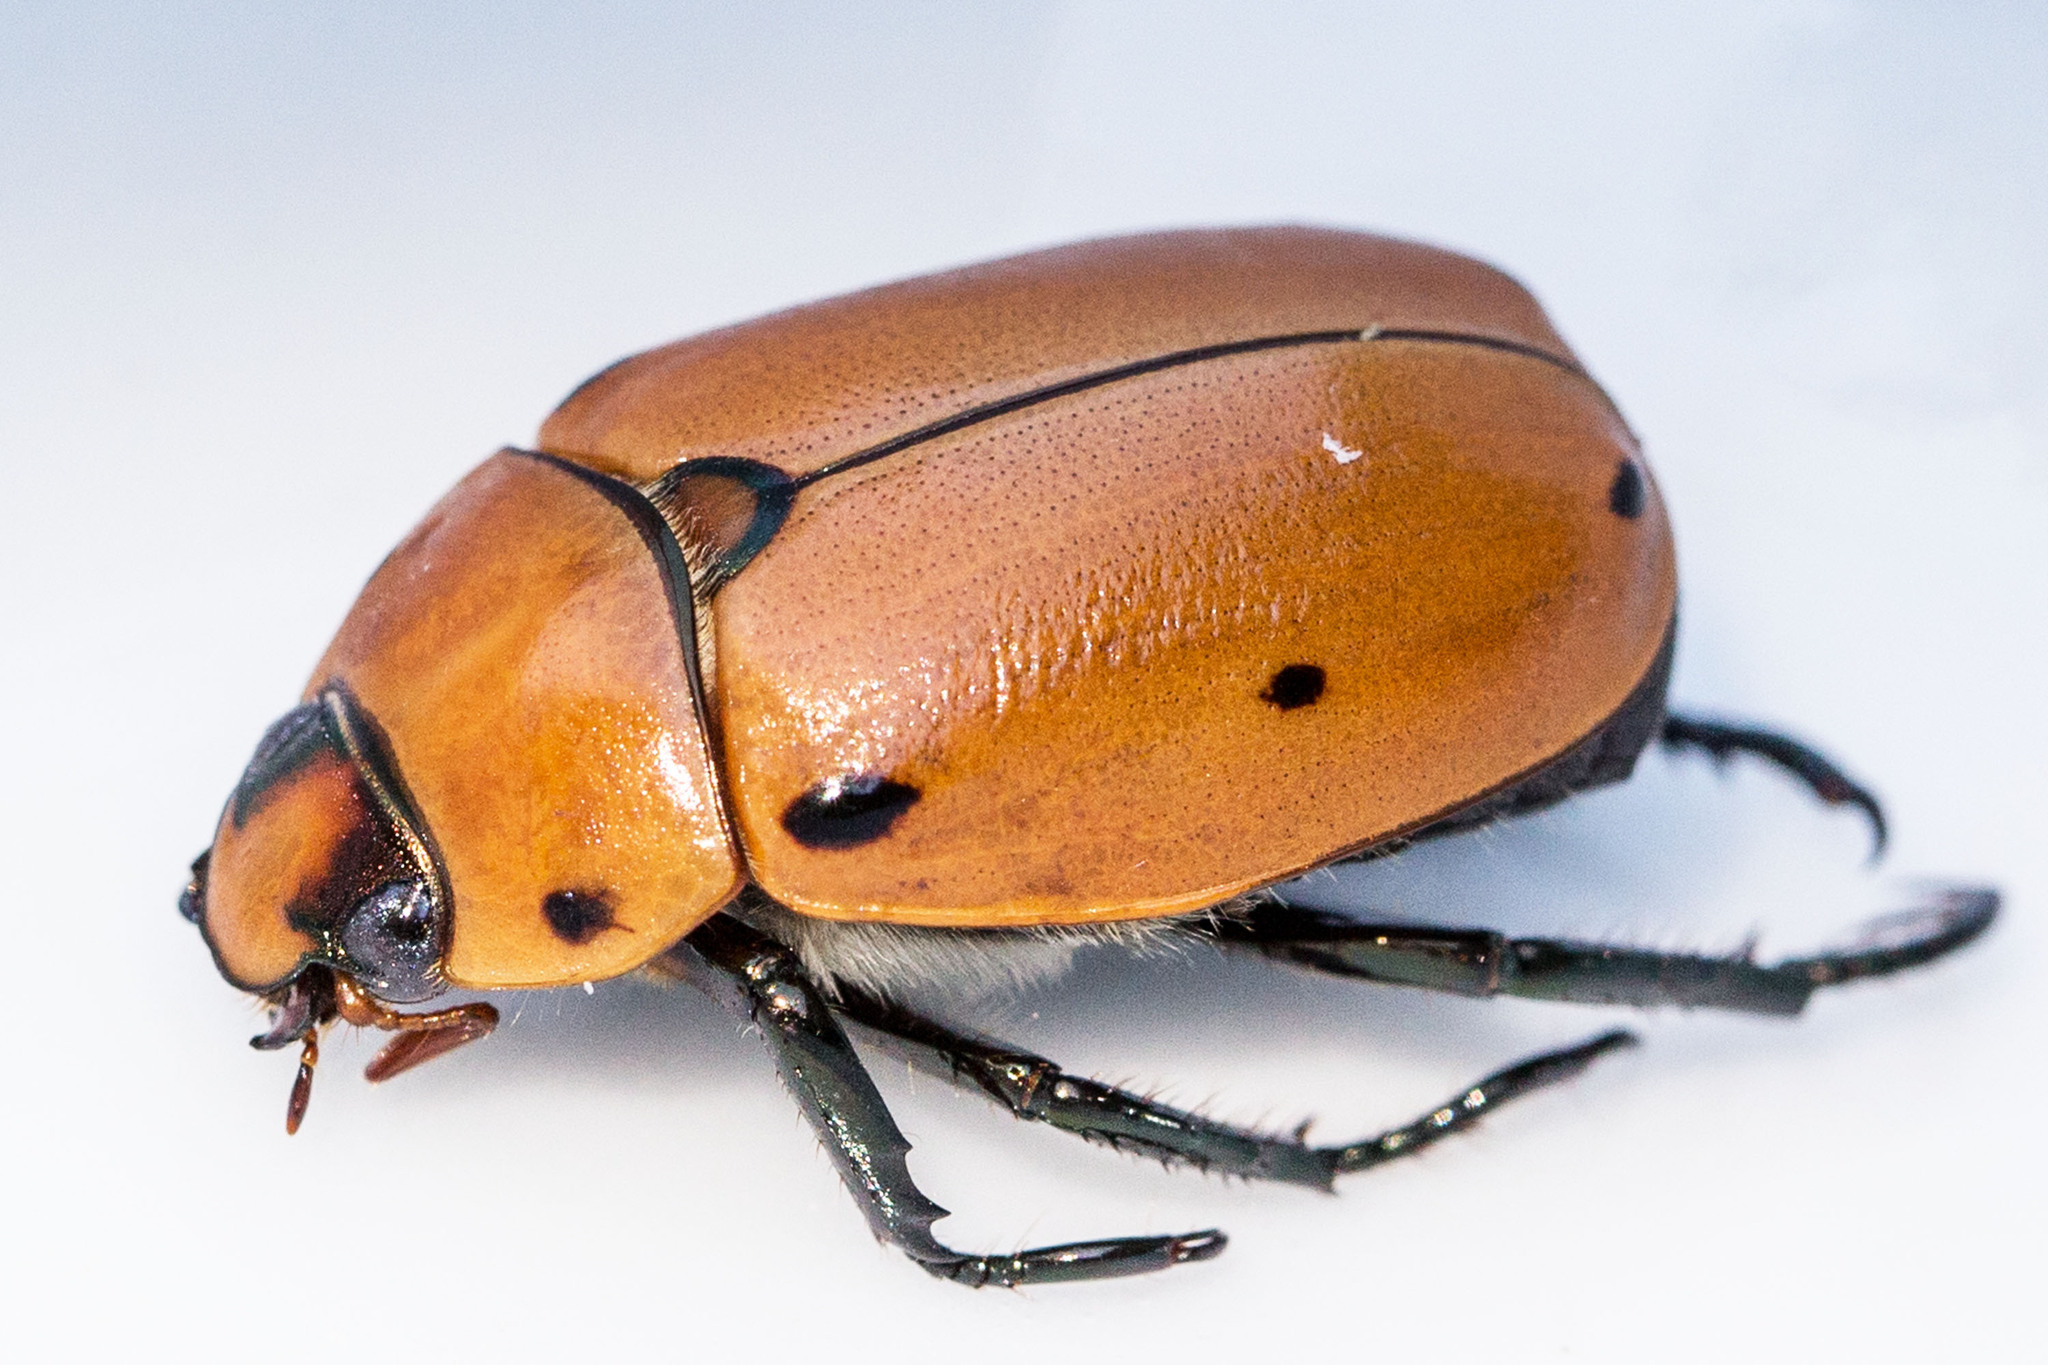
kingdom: Animalia
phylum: Arthropoda
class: Insecta
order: Coleoptera
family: Scarabaeidae
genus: Pelidnota
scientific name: Pelidnota punctata
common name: Grapevine beetle
